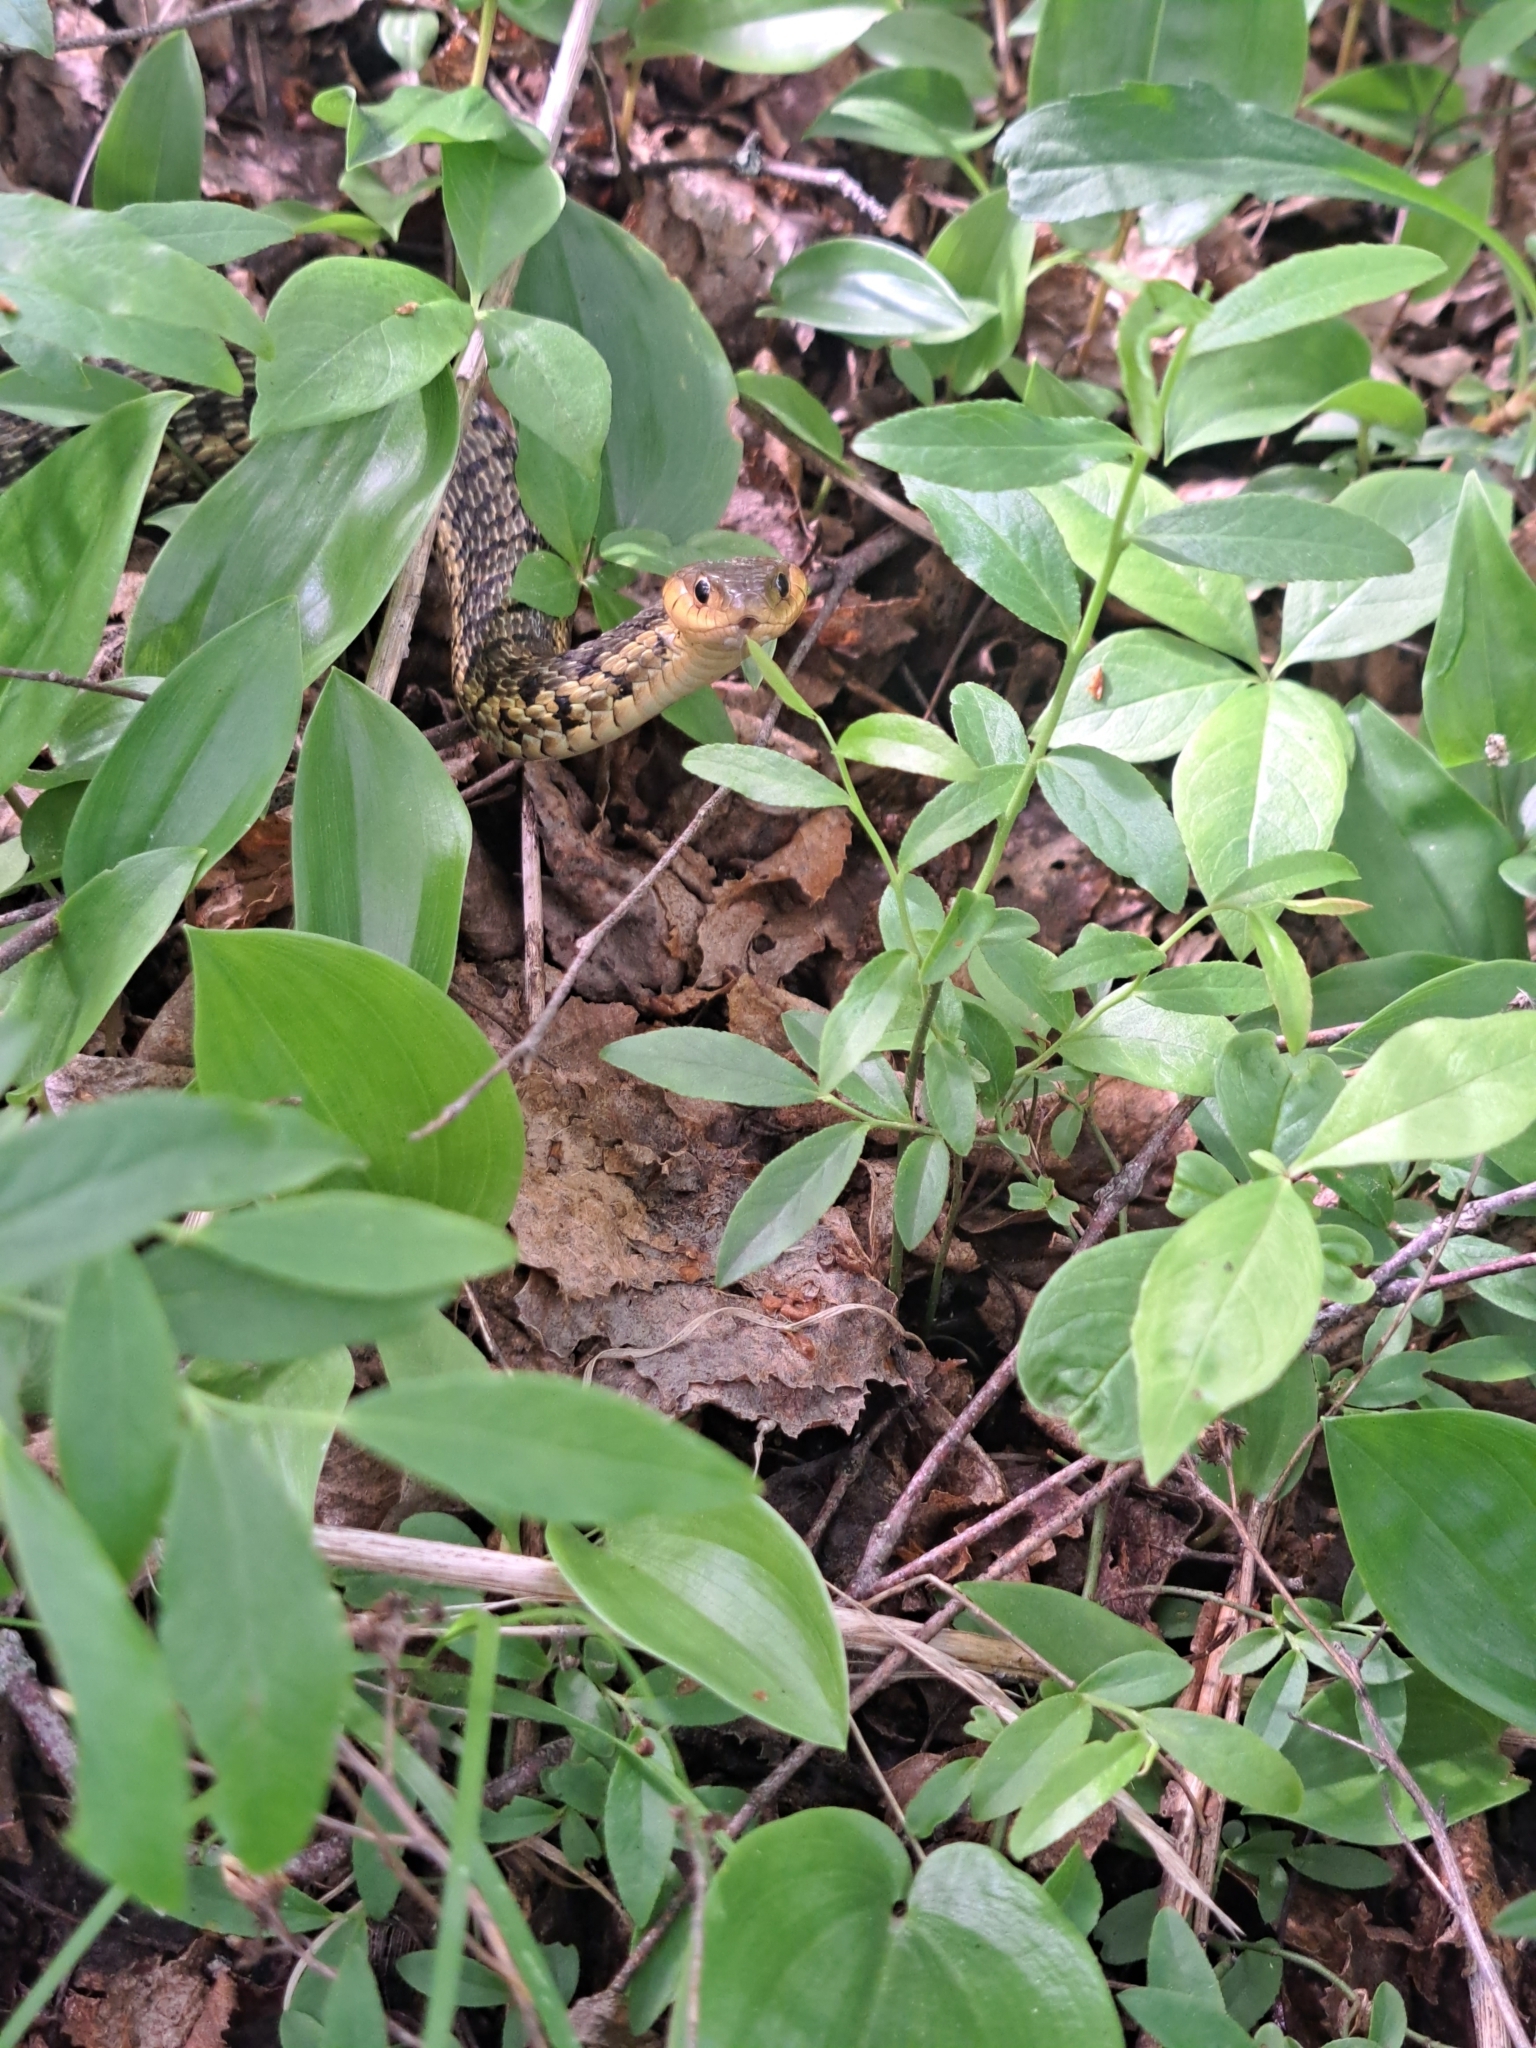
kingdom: Animalia
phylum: Chordata
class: Squamata
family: Colubridae
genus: Thamnophis
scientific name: Thamnophis sirtalis
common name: Common garter snake
